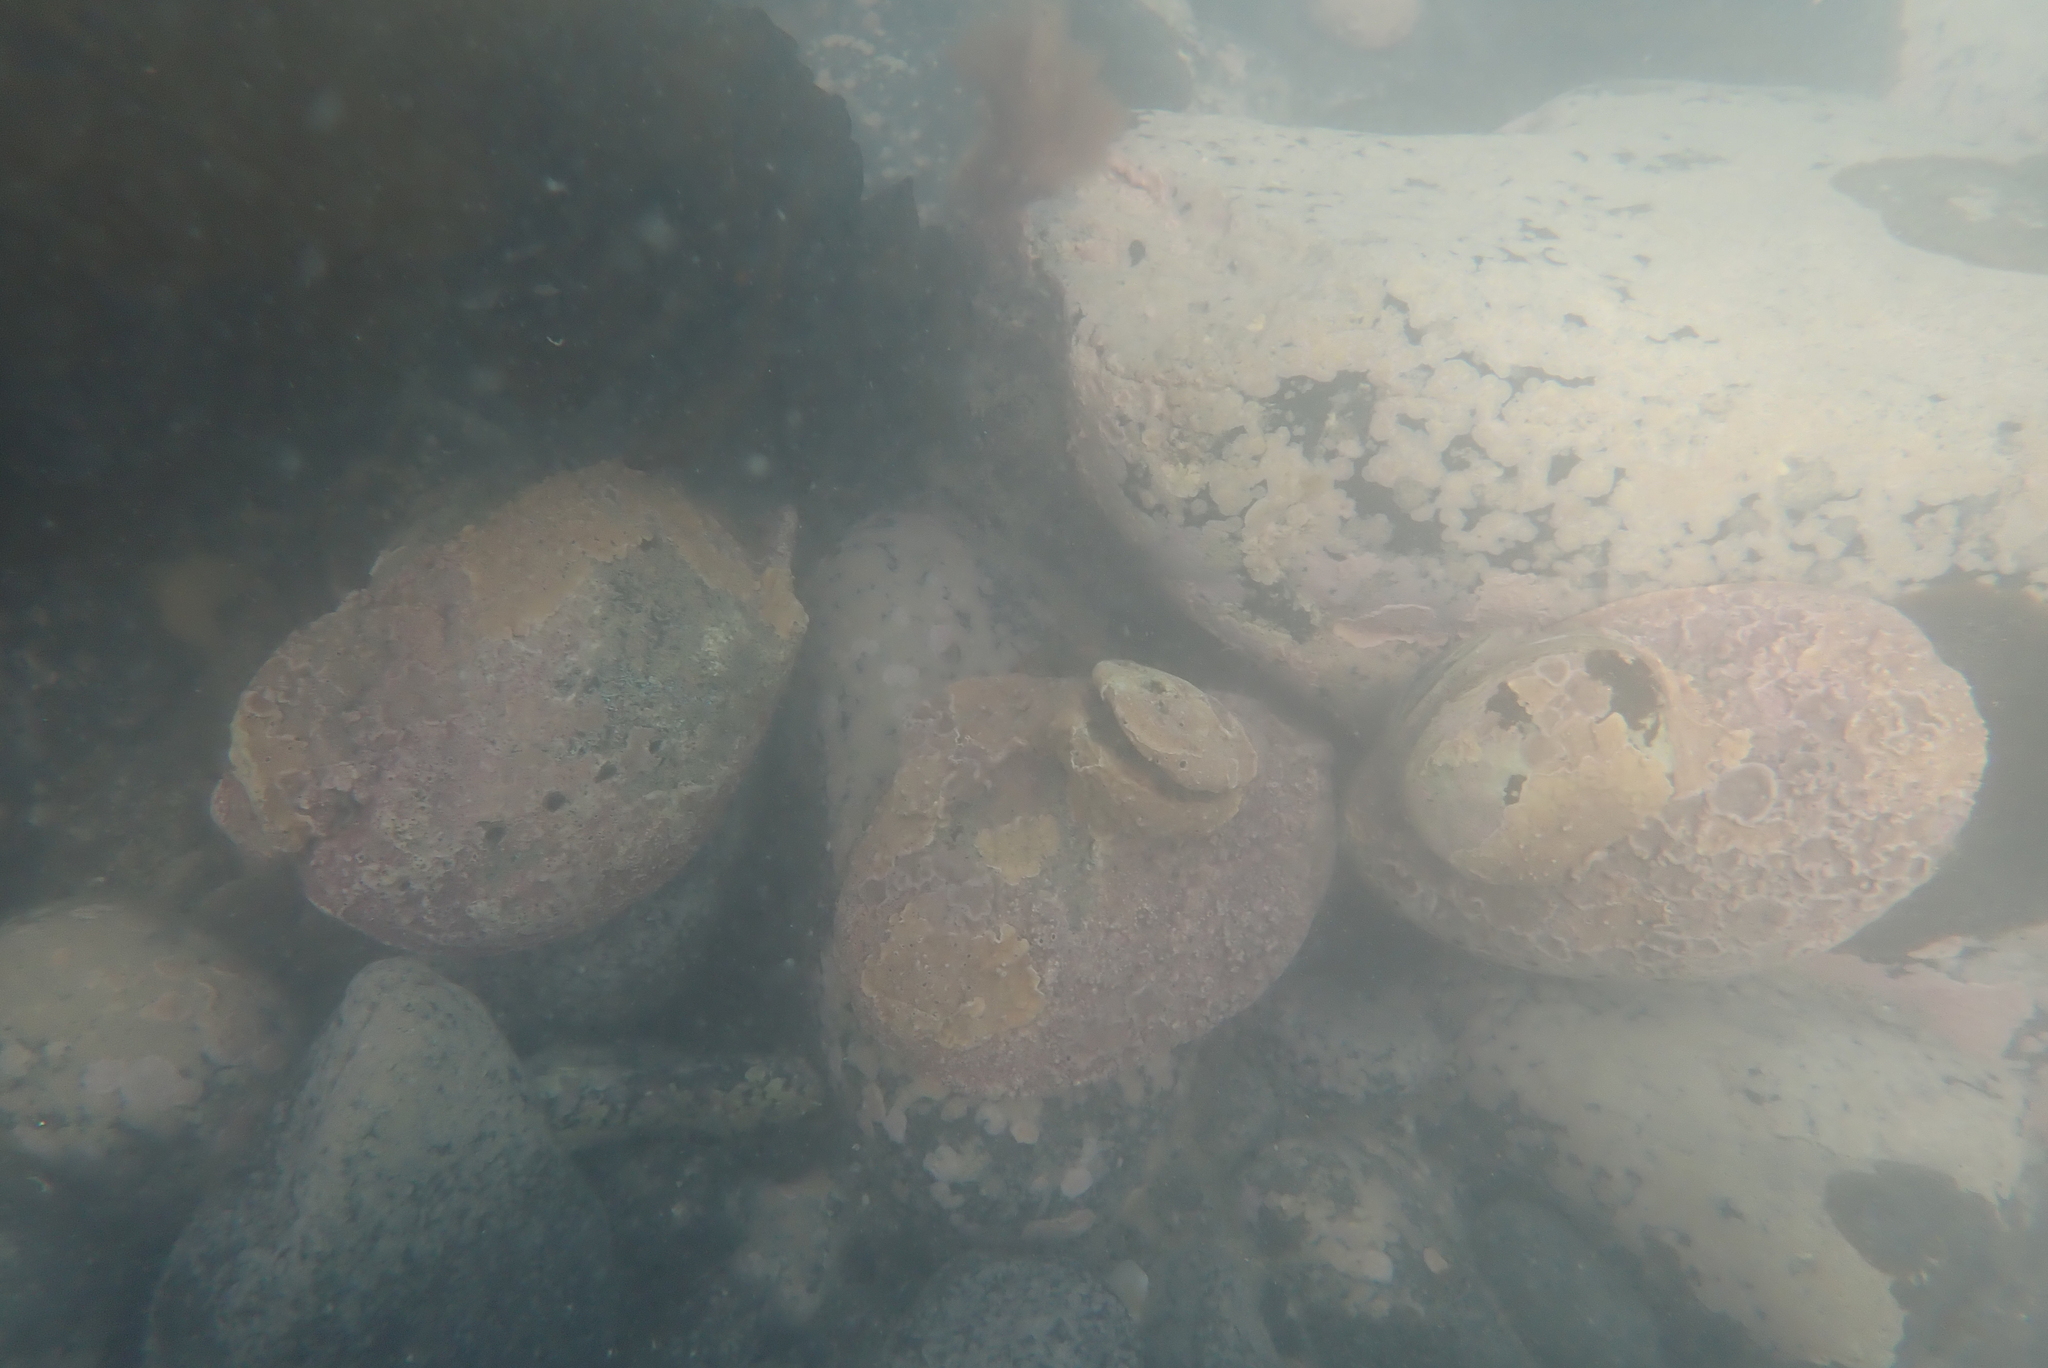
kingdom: Animalia
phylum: Mollusca
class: Gastropoda
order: Lepetellida
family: Haliotidae
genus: Haliotis
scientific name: Haliotis iris
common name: Abalone
